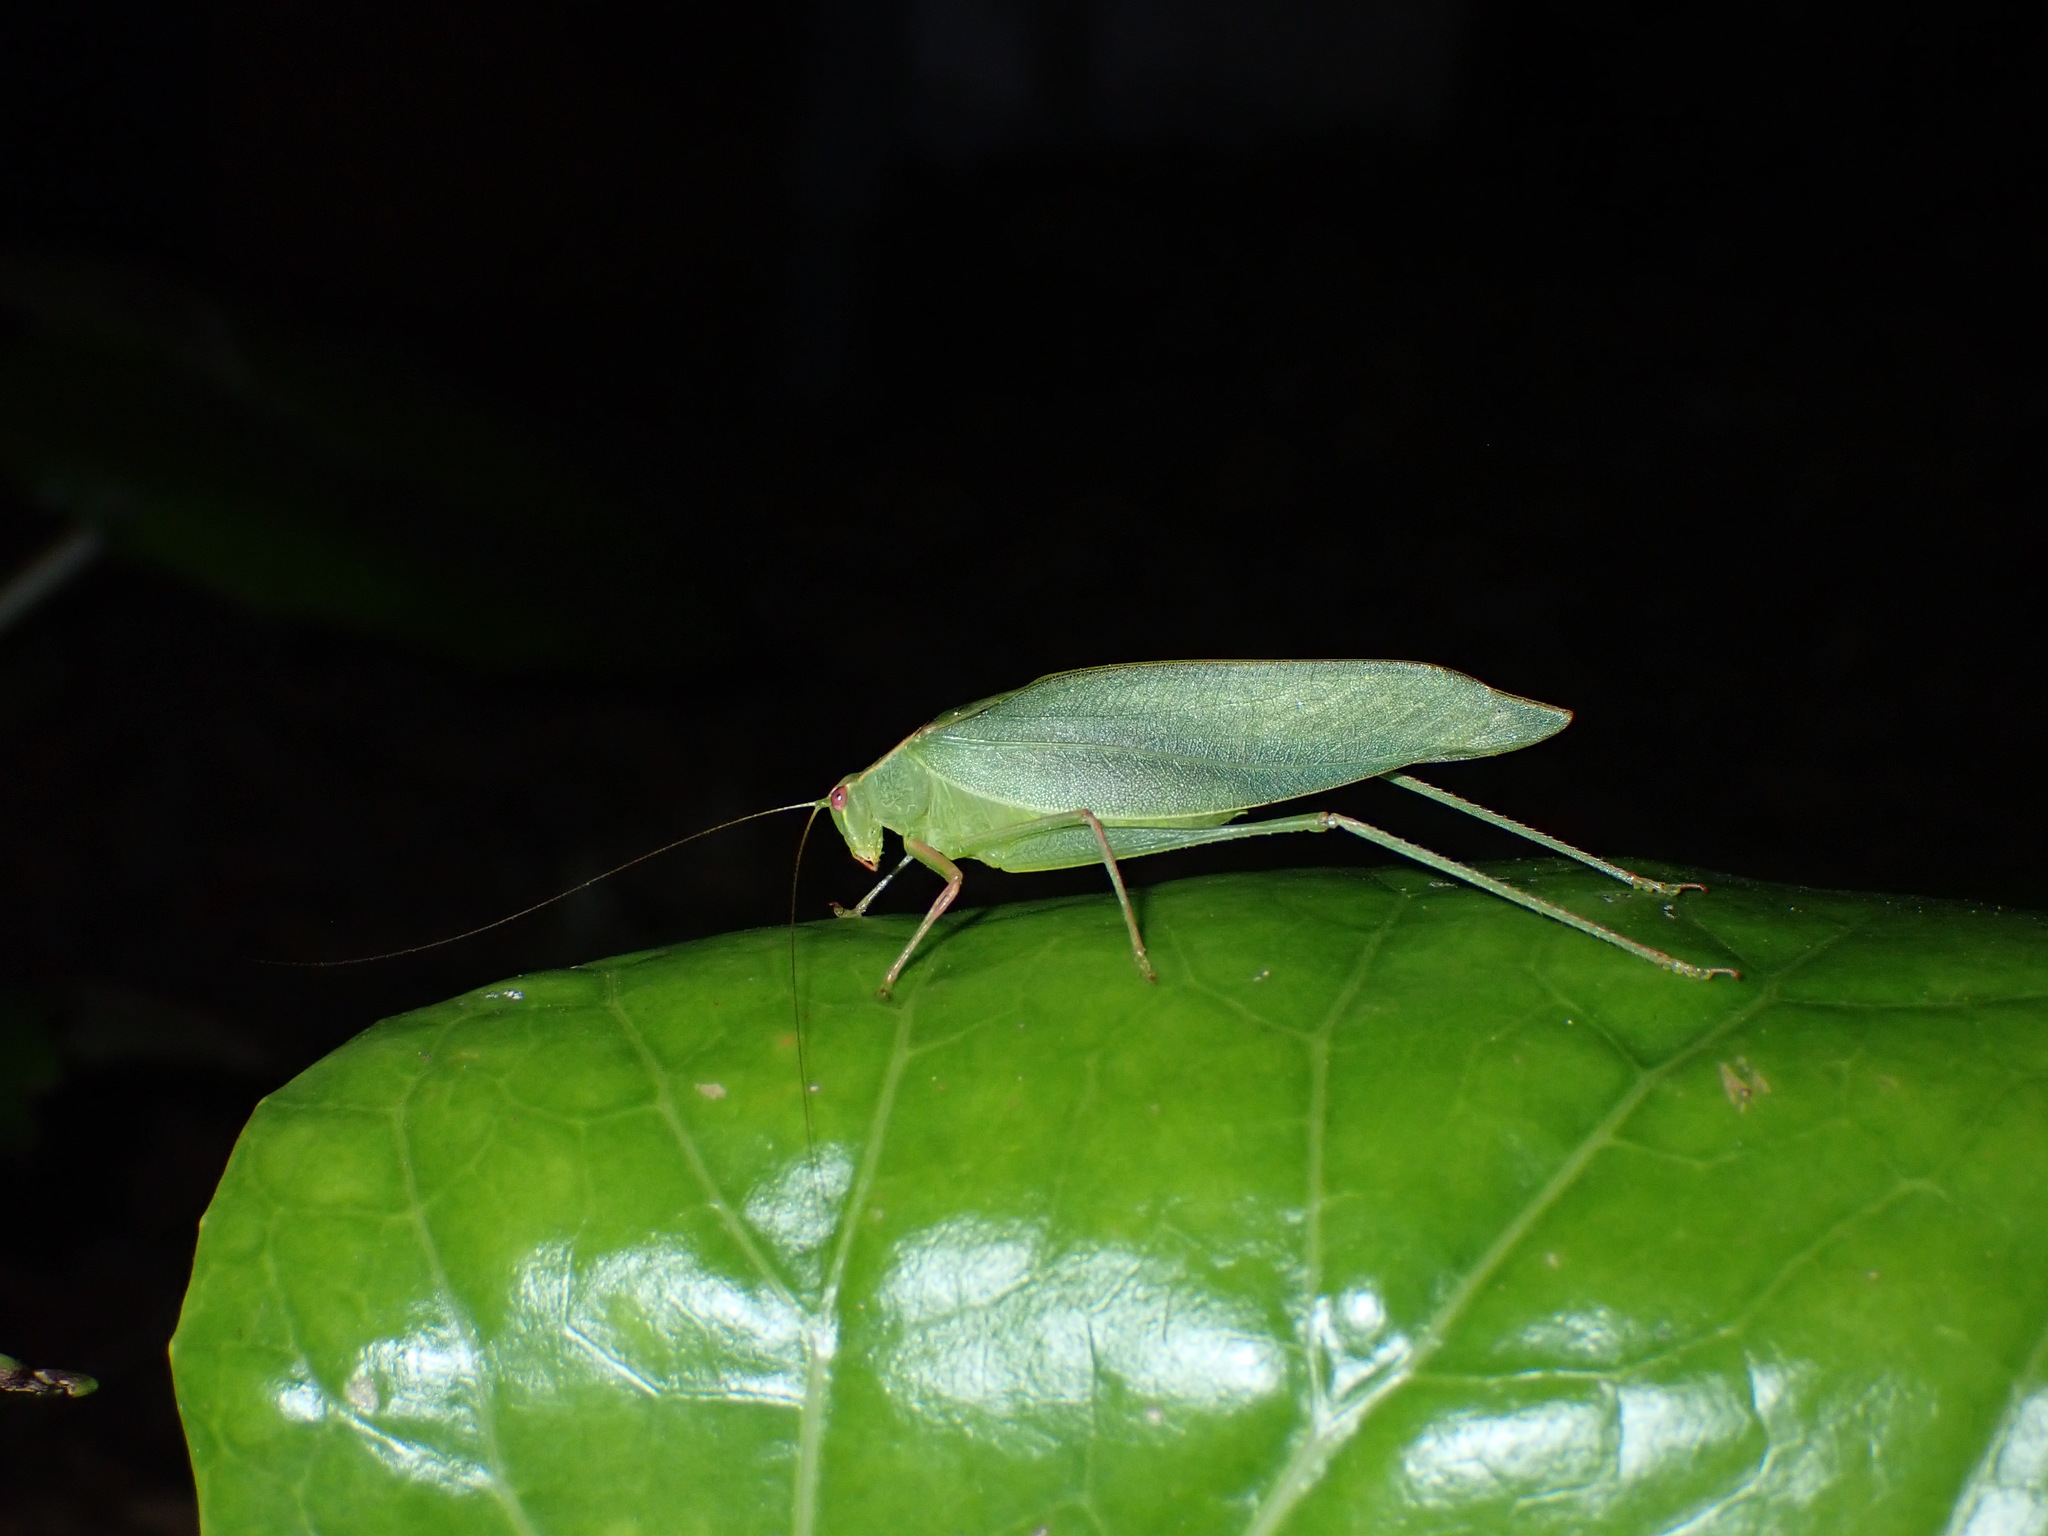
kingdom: Animalia
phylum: Arthropoda
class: Insecta
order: Orthoptera
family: Tettigoniidae
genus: Caedicia
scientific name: Caedicia simplex
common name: Common garden katydid
